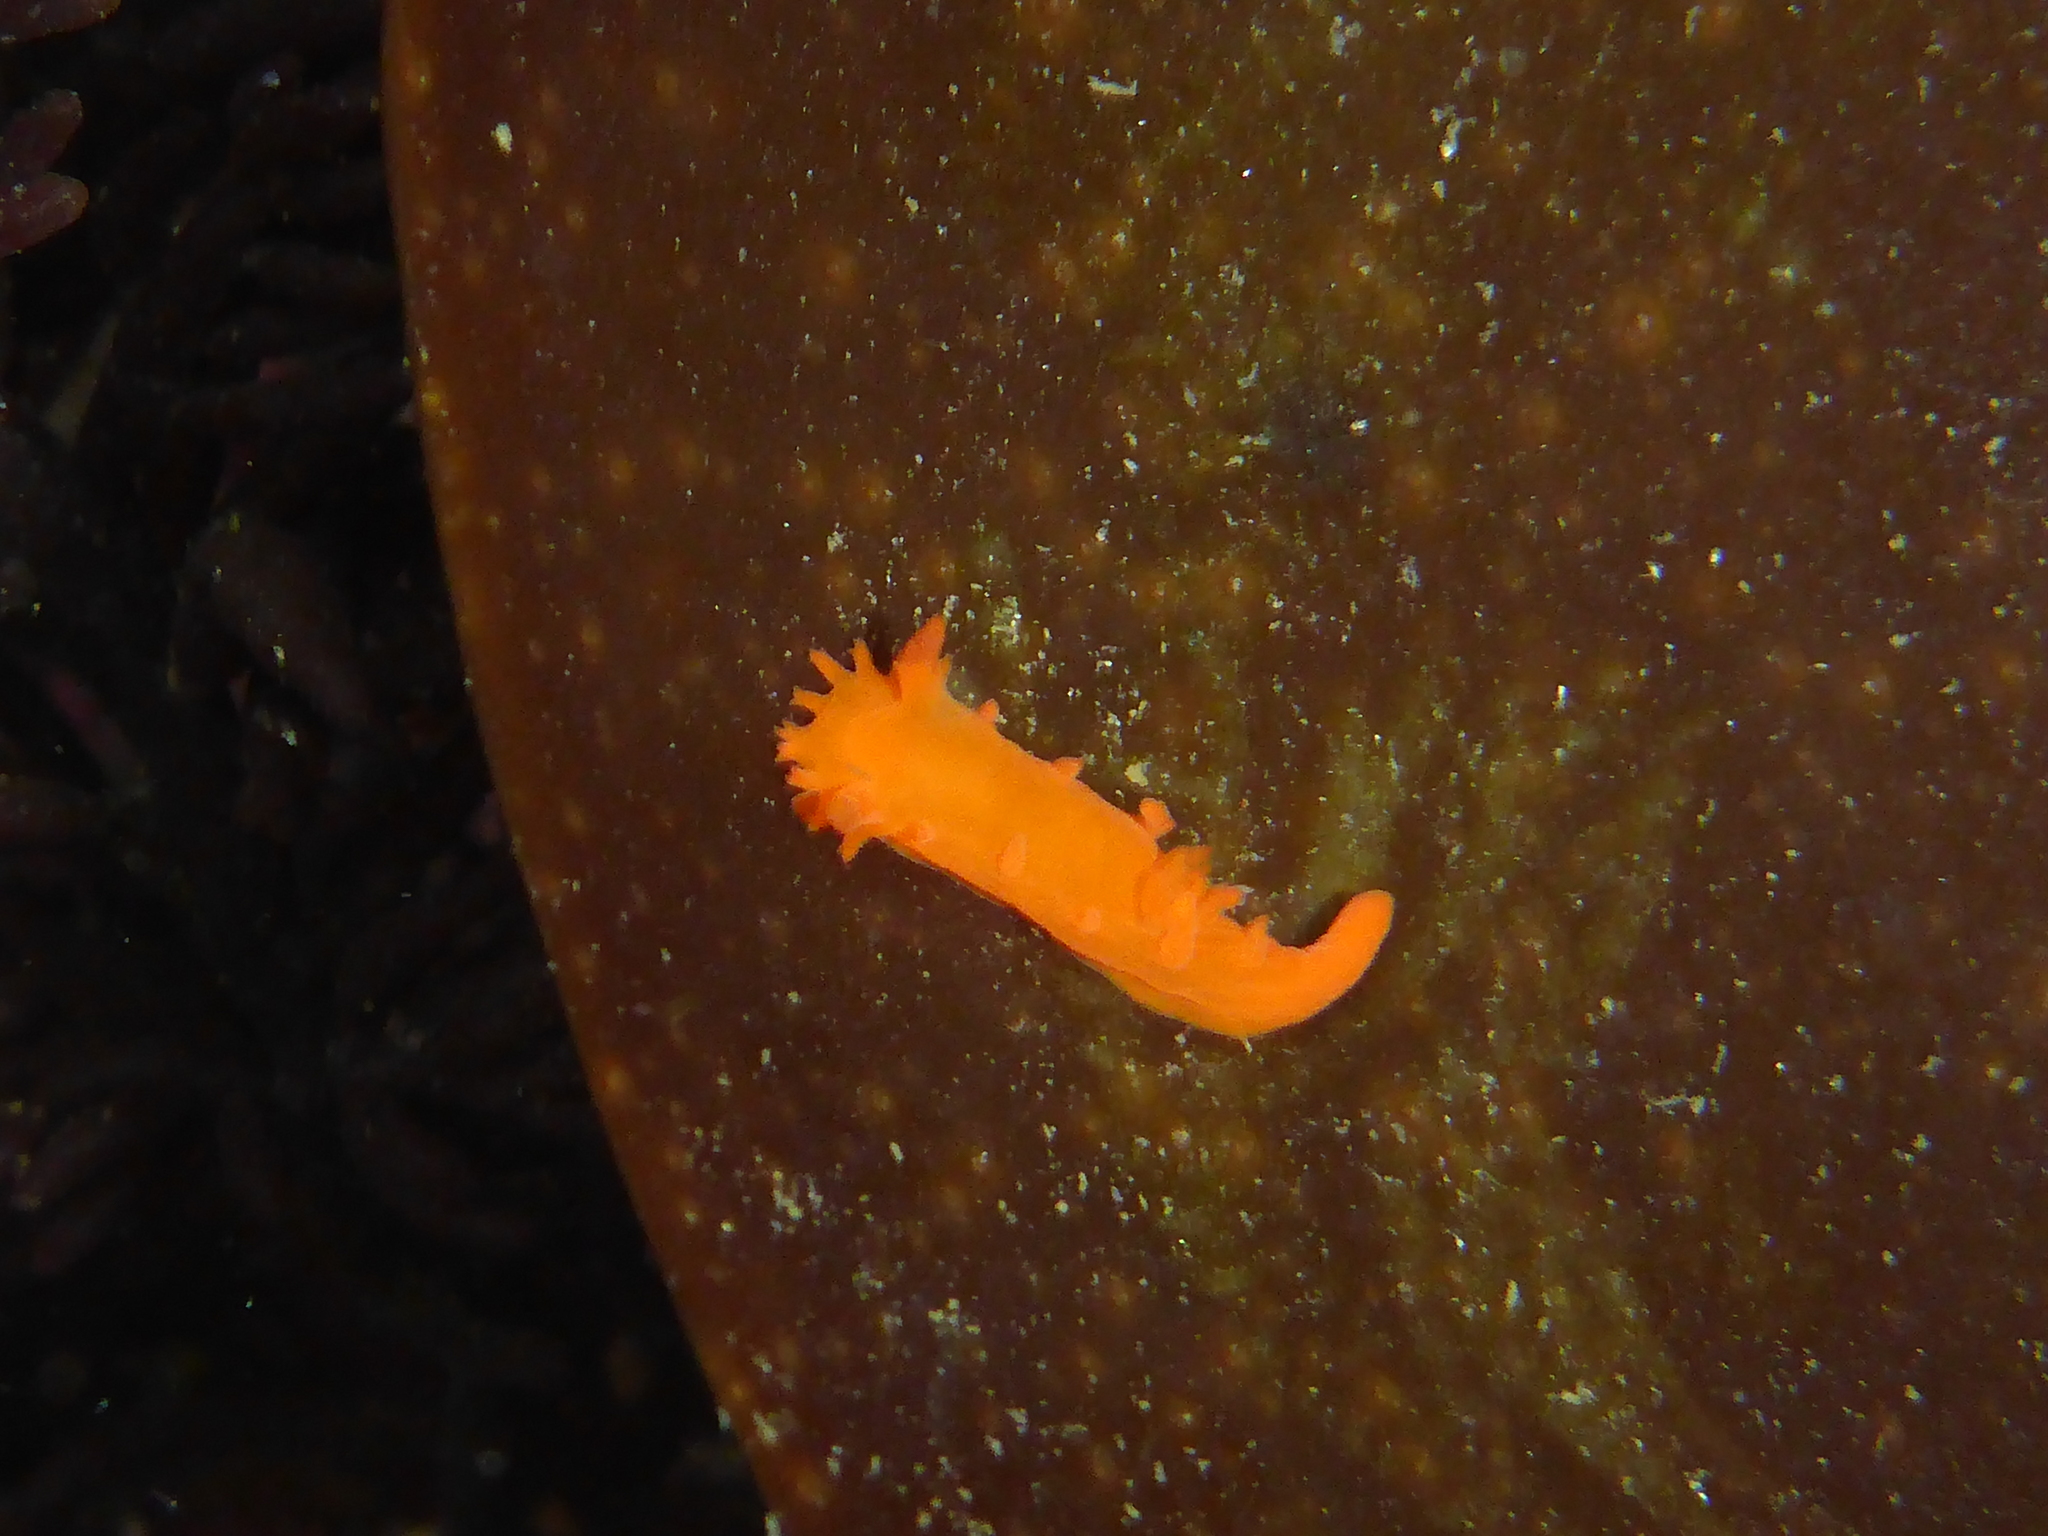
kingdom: Animalia
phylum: Mollusca
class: Gastropoda
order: Nudibranchia
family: Polyceridae
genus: Triopha
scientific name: Triopha maculata
